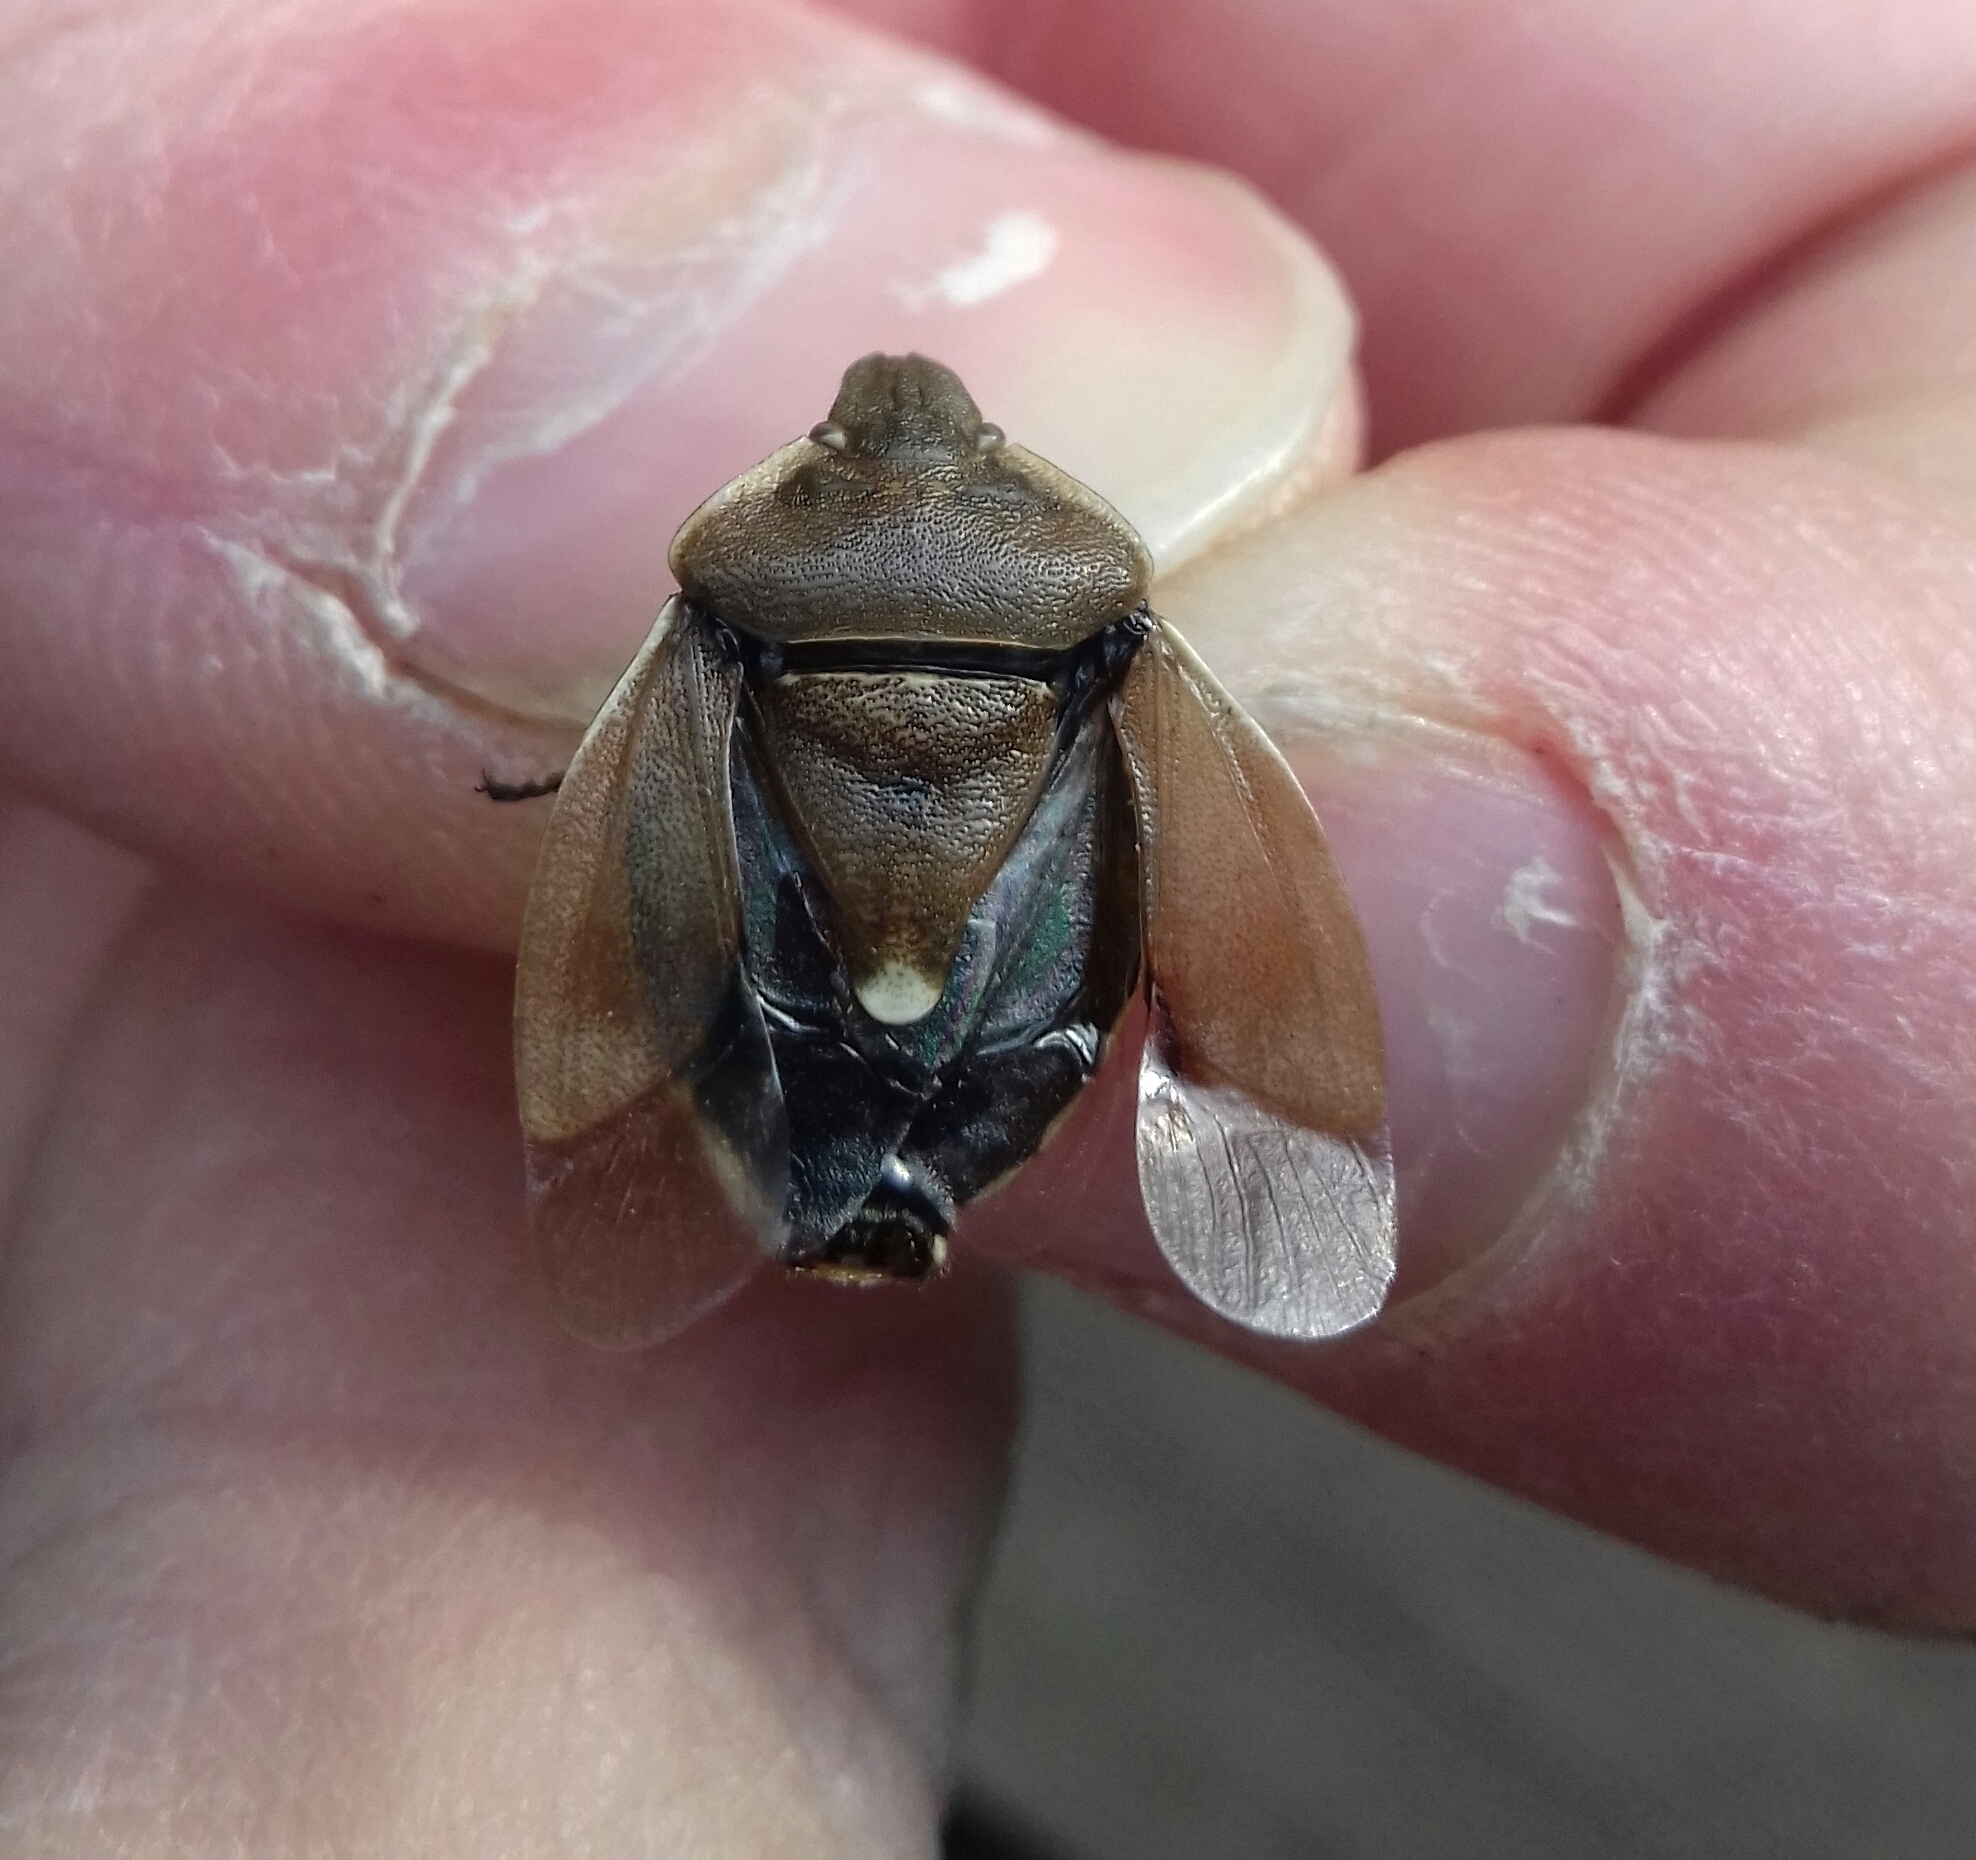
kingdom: Animalia
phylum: Arthropoda
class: Insecta
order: Hemiptera
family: Pentatomidae
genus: Chlorochroa
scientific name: Chlorochroa pinicola
